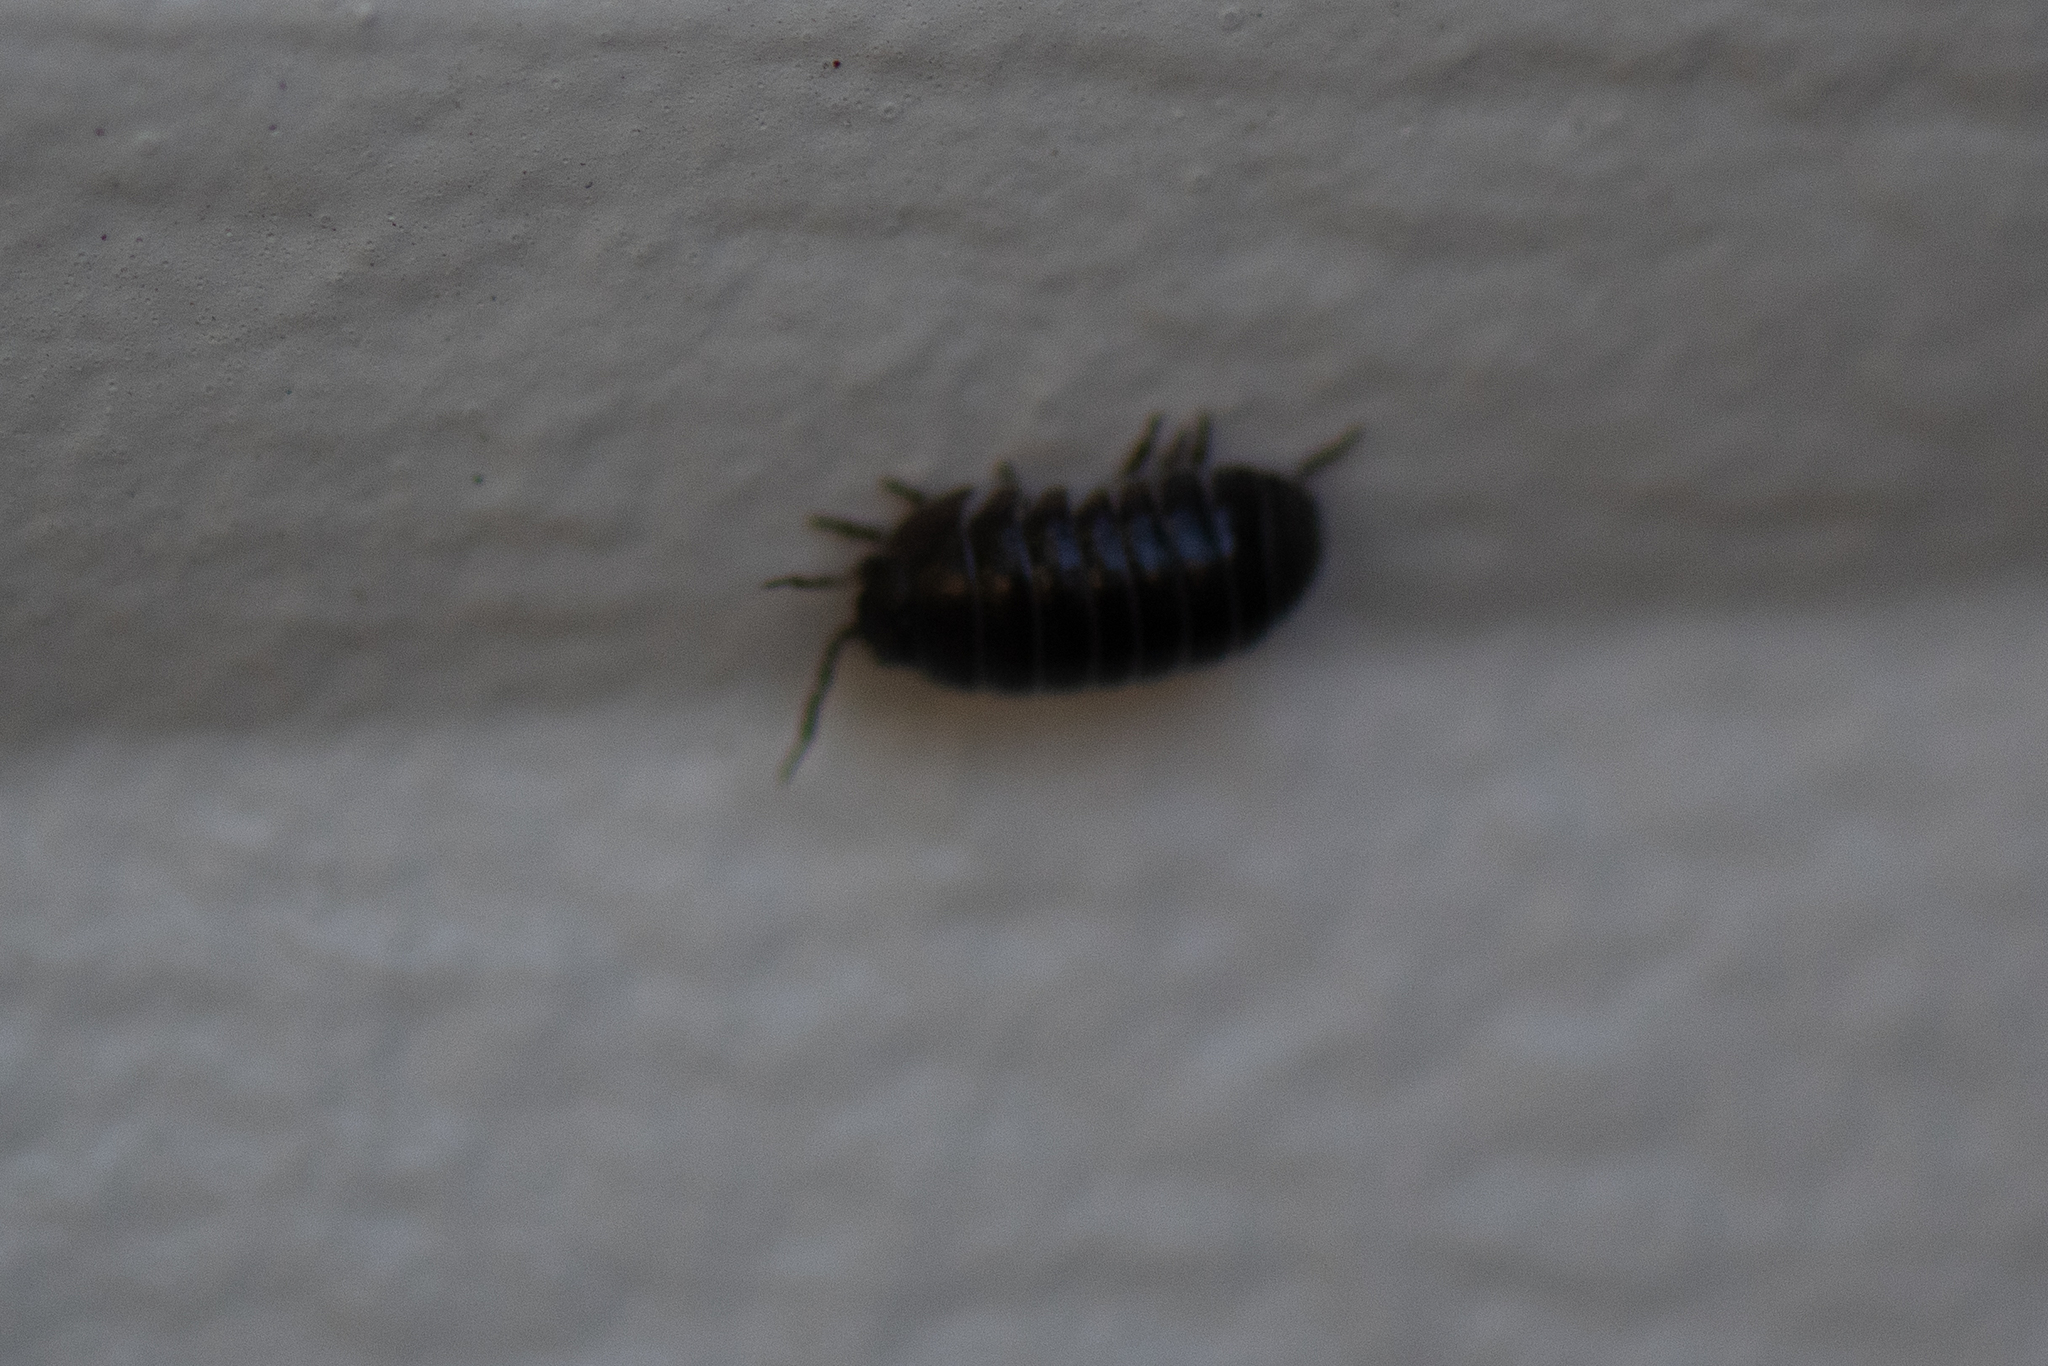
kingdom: Animalia
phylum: Arthropoda
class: Malacostraca
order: Isopoda
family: Armadillidiidae
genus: Armadillidium
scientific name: Armadillidium vulgare
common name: Common pill woodlouse
